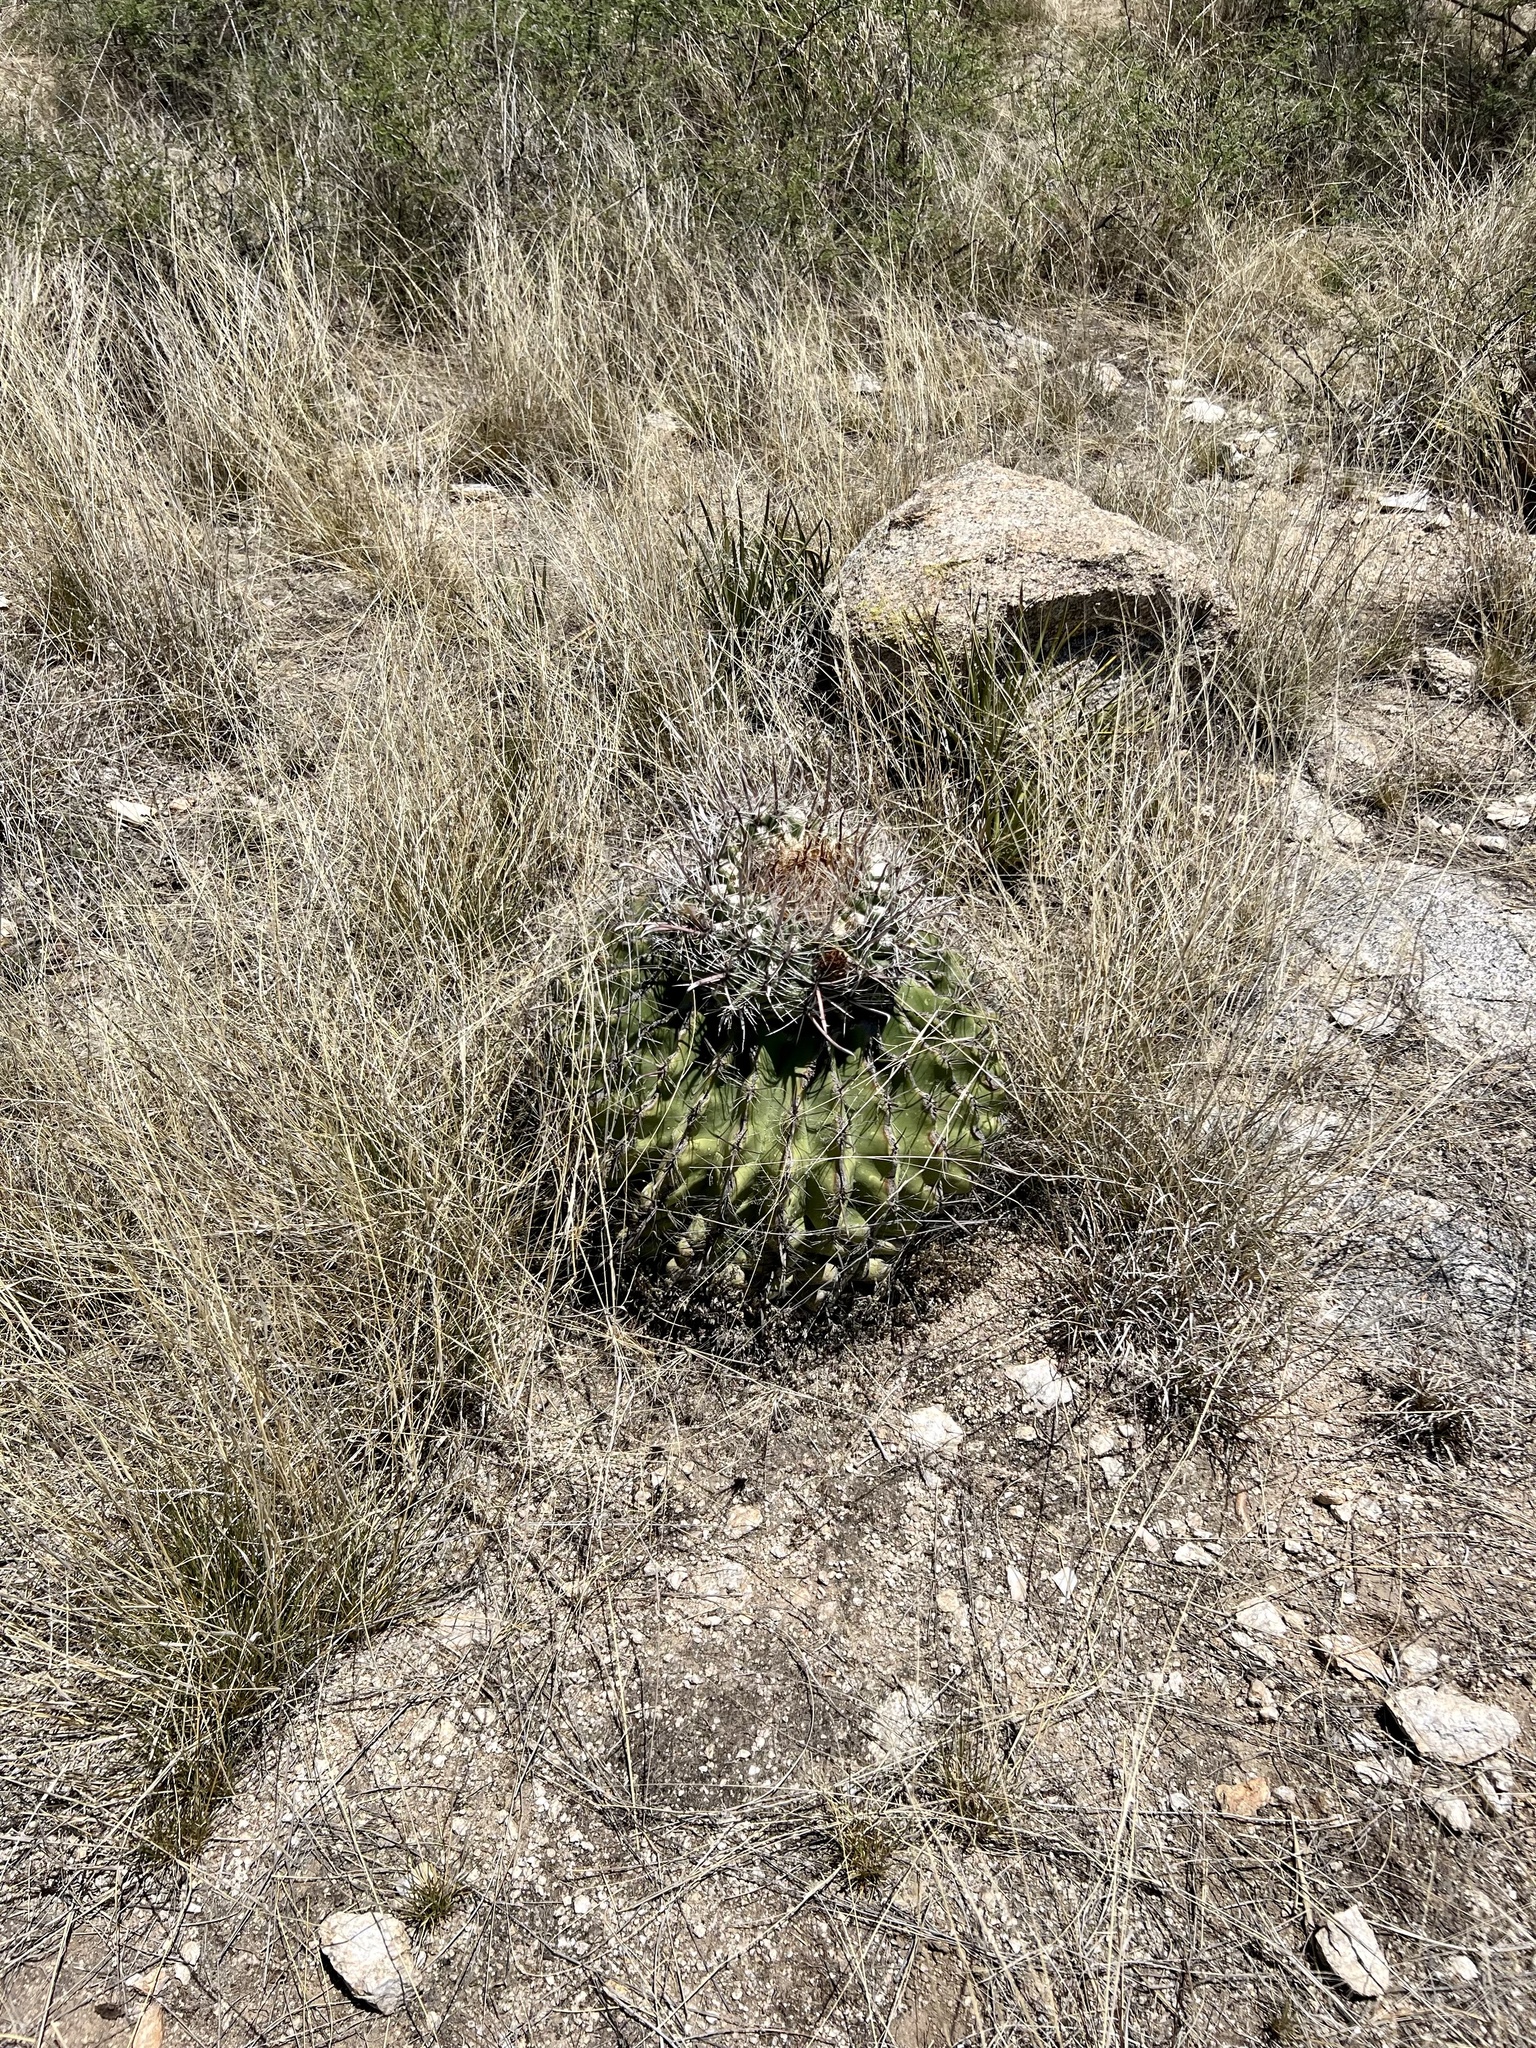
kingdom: Plantae
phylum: Tracheophyta
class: Magnoliopsida
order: Caryophyllales
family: Cactaceae
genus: Ferocactus
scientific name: Ferocactus wislizeni
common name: Candy barrel cactus
